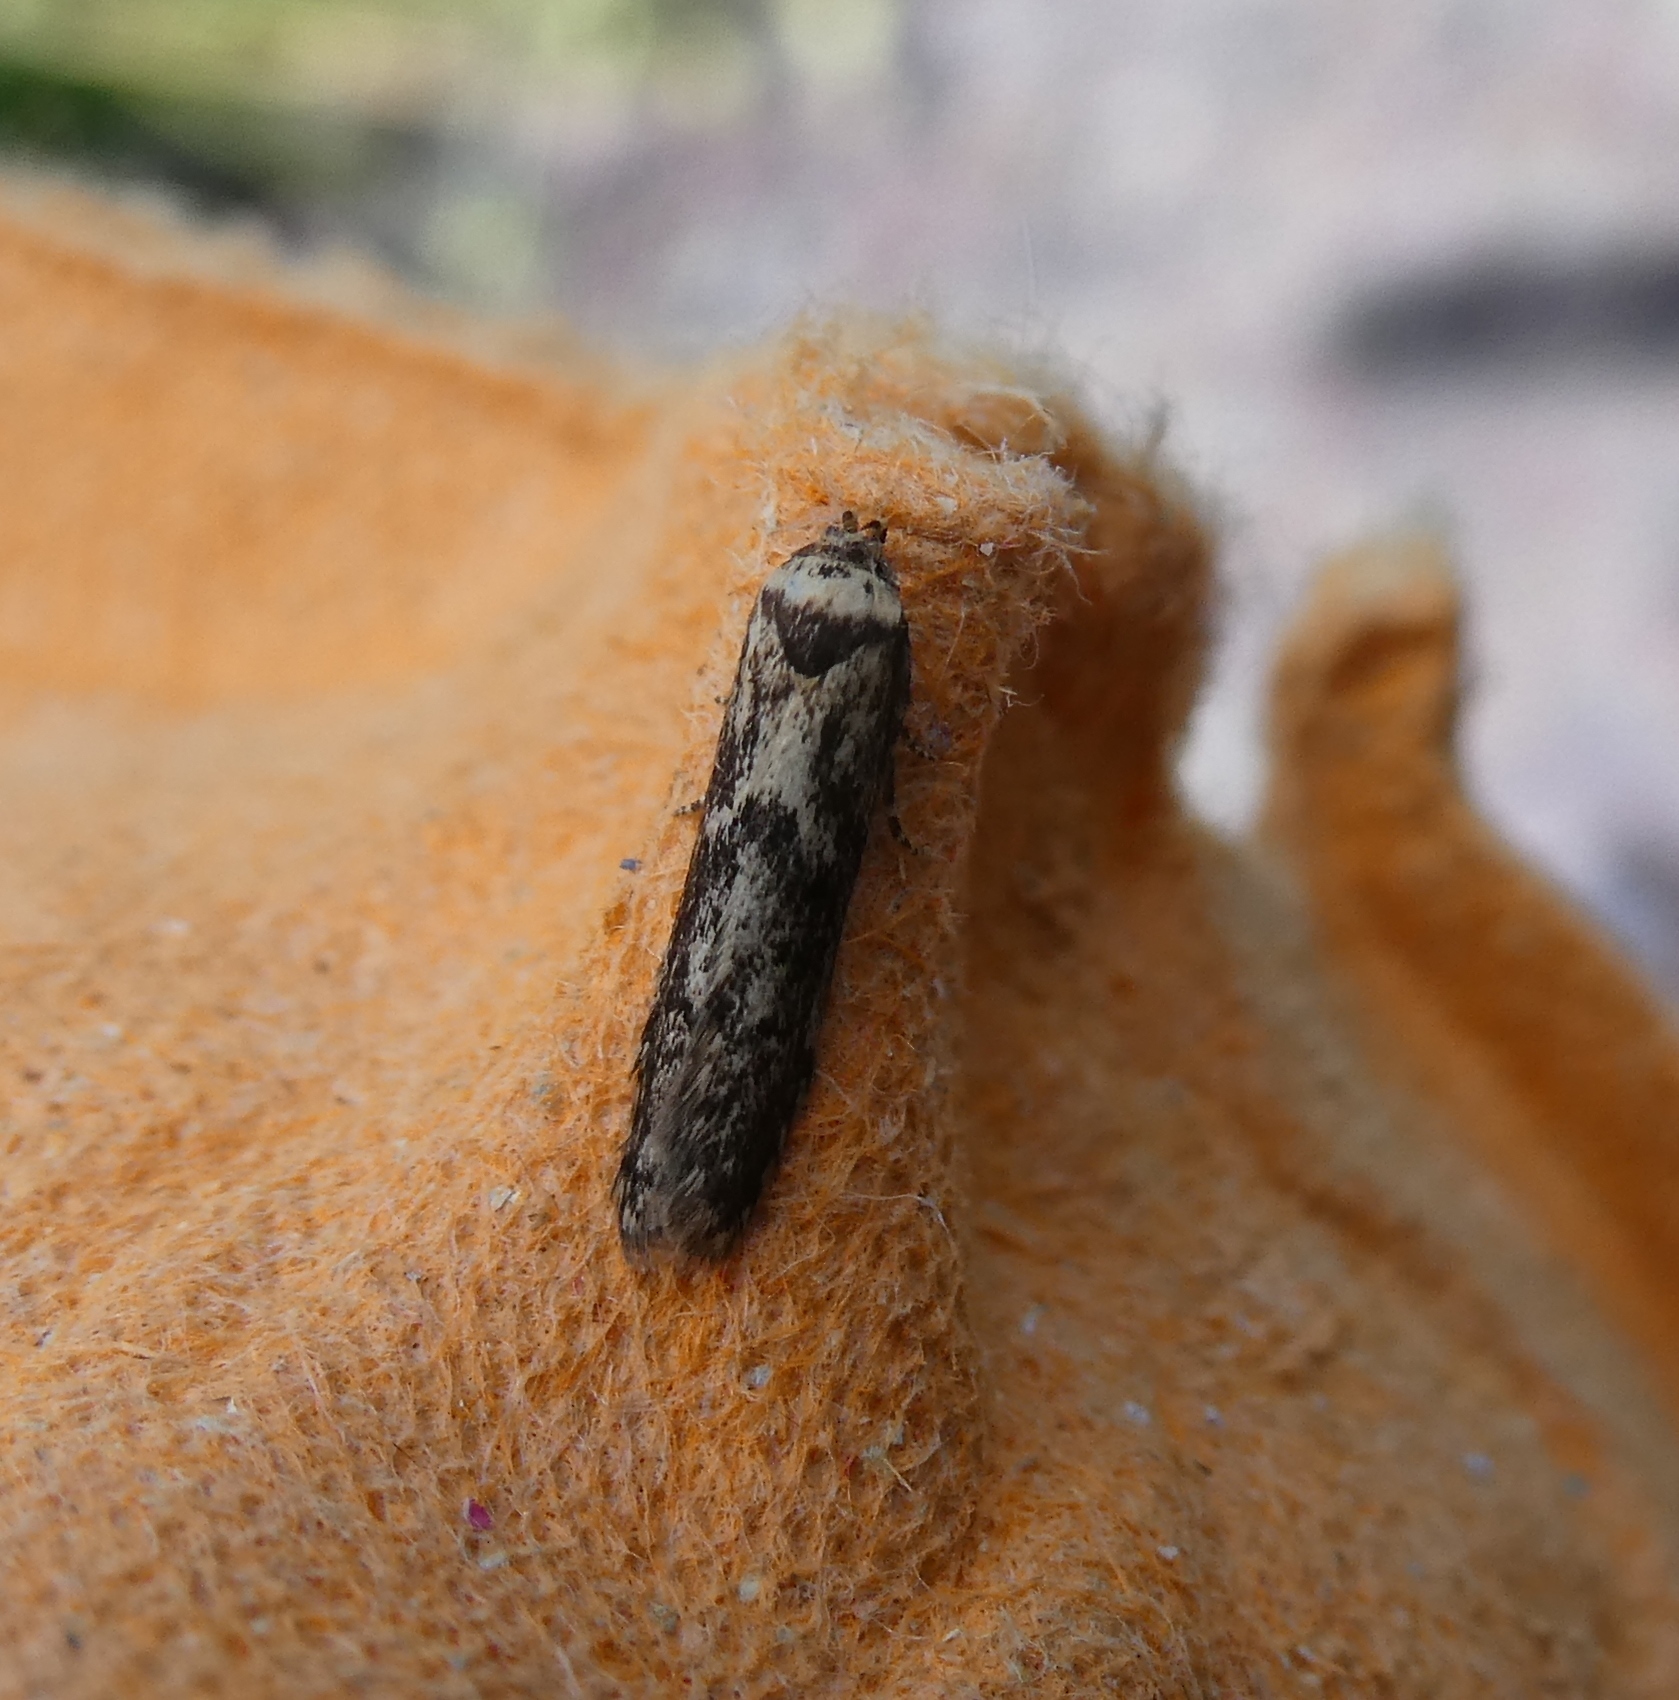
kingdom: Animalia
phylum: Arthropoda
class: Insecta
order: Lepidoptera
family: Blastobasidae
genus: Blastobasis
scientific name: Blastobasis adustella
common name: Dingy dowd
